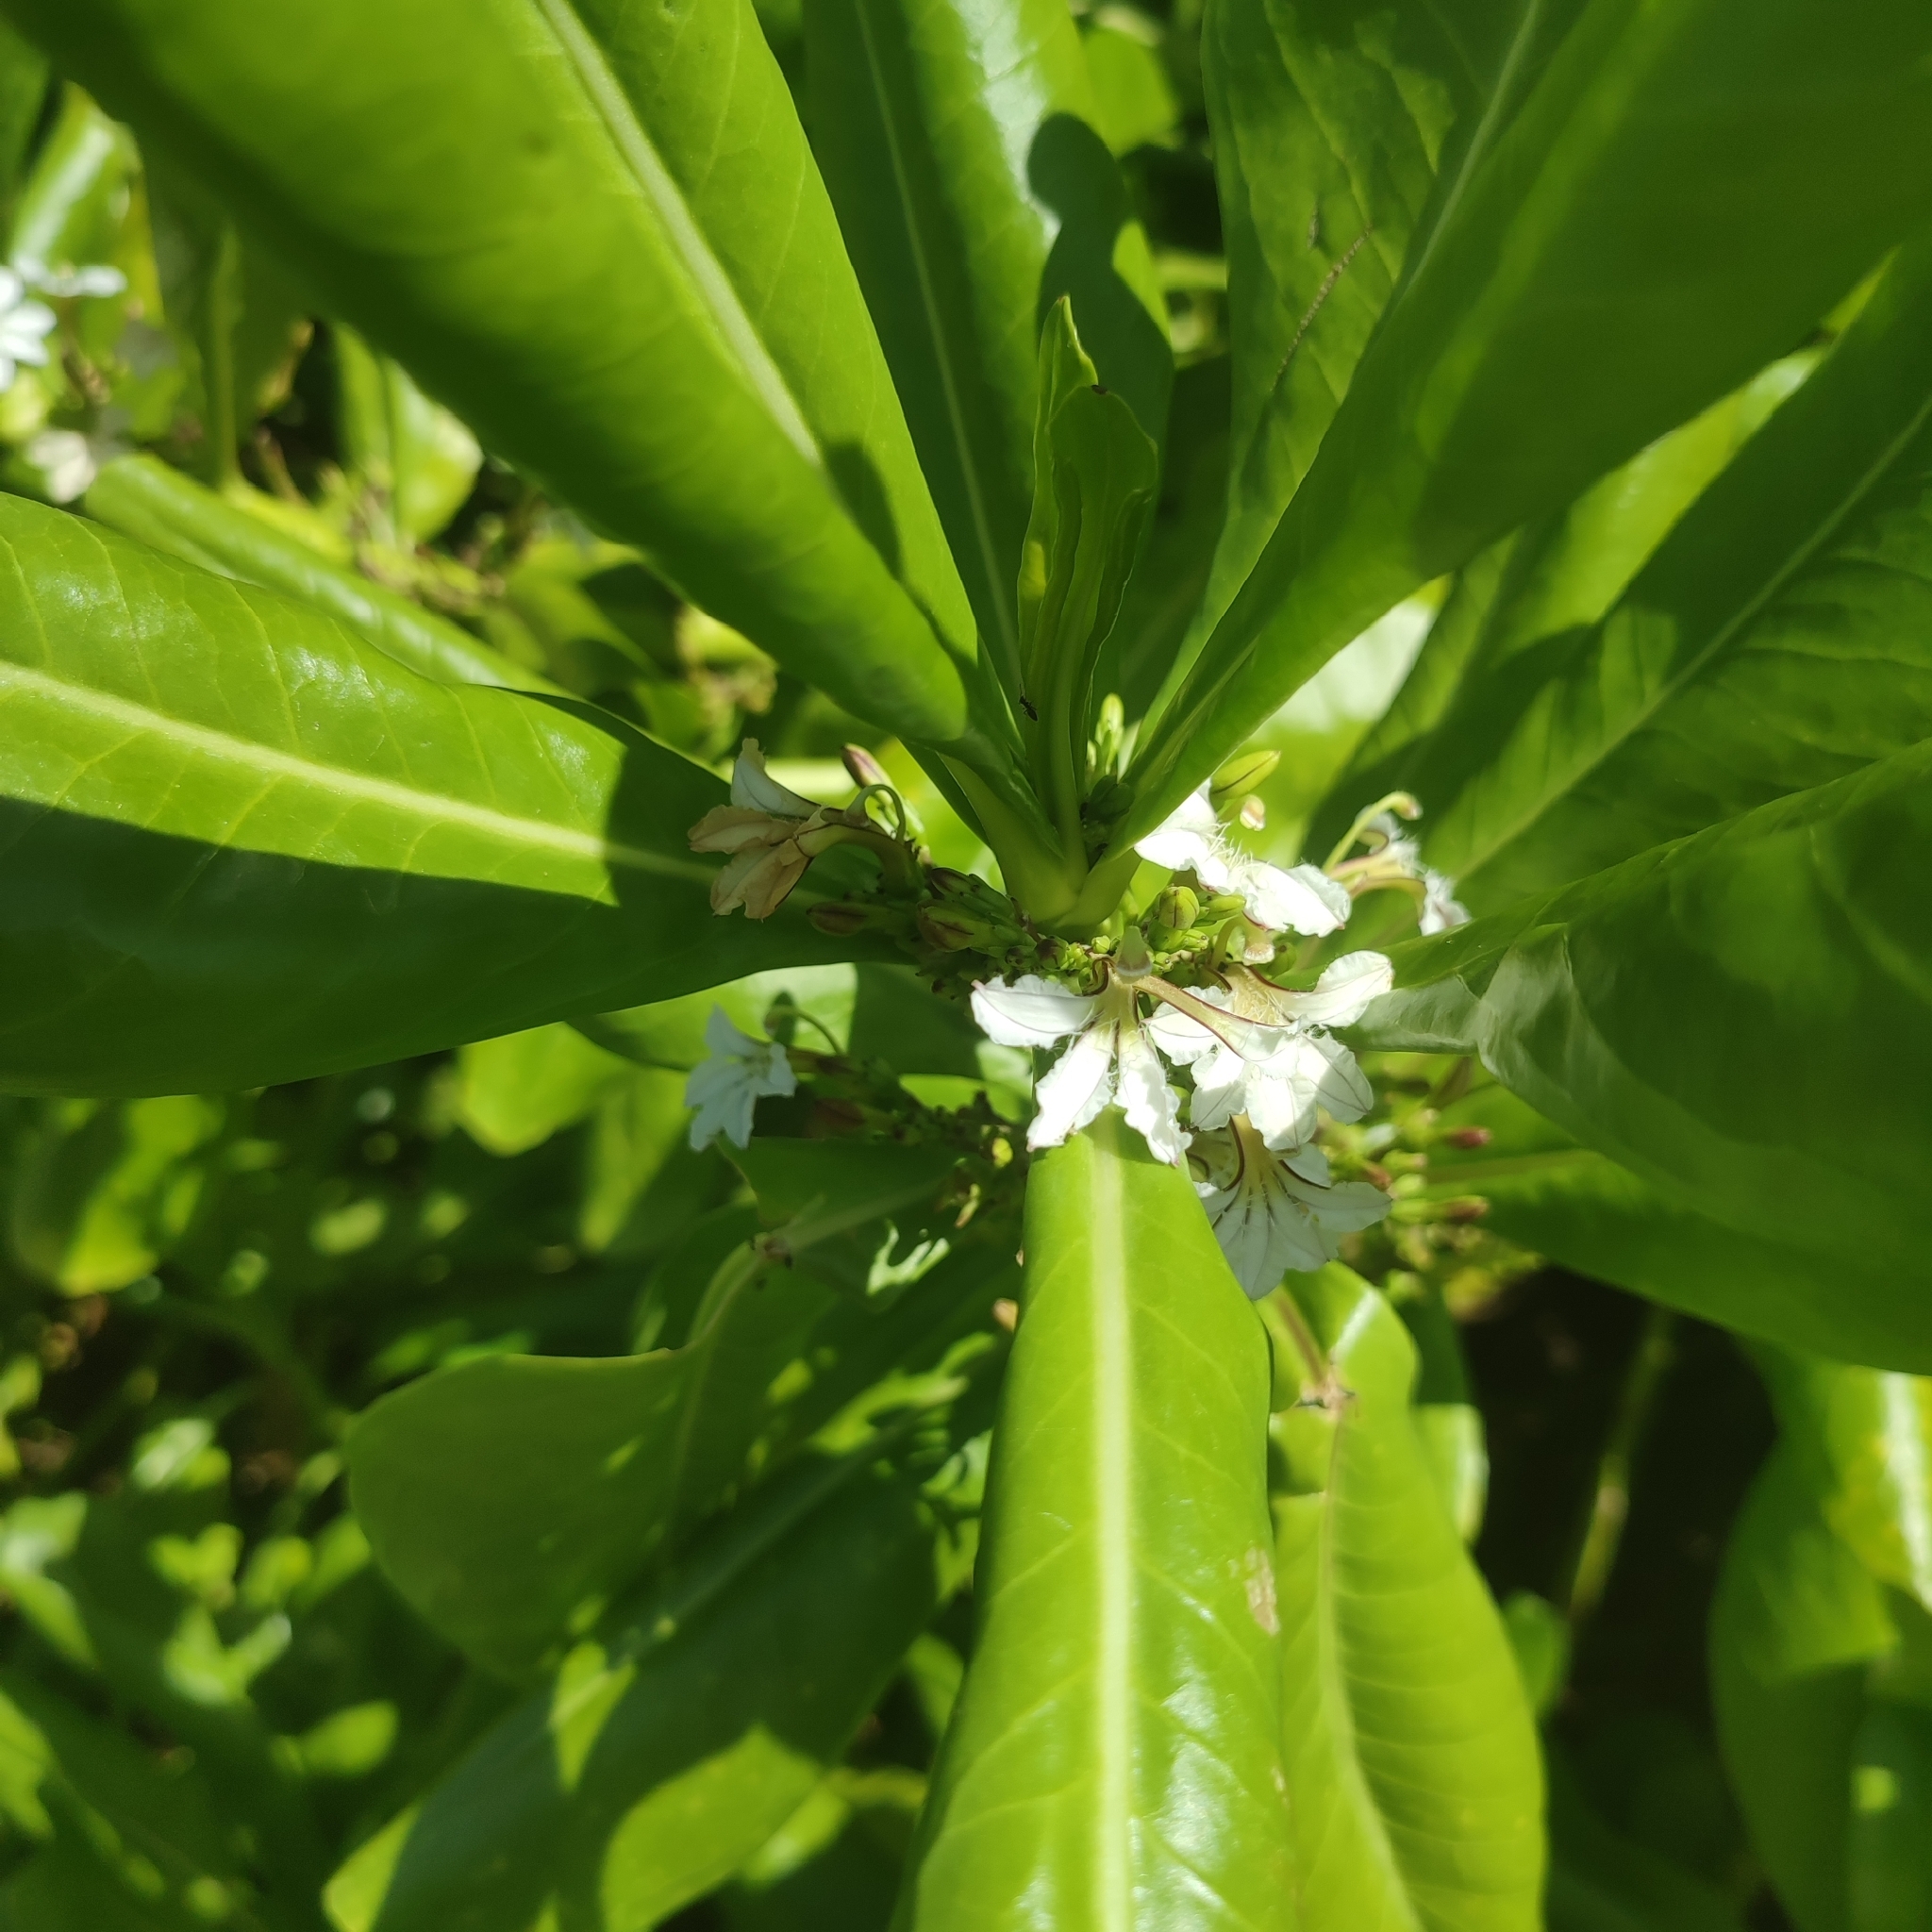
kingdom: Plantae
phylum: Tracheophyta
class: Magnoliopsida
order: Asterales
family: Goodeniaceae
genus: Scaevola
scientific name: Scaevola taccada
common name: Sea lettucetree
